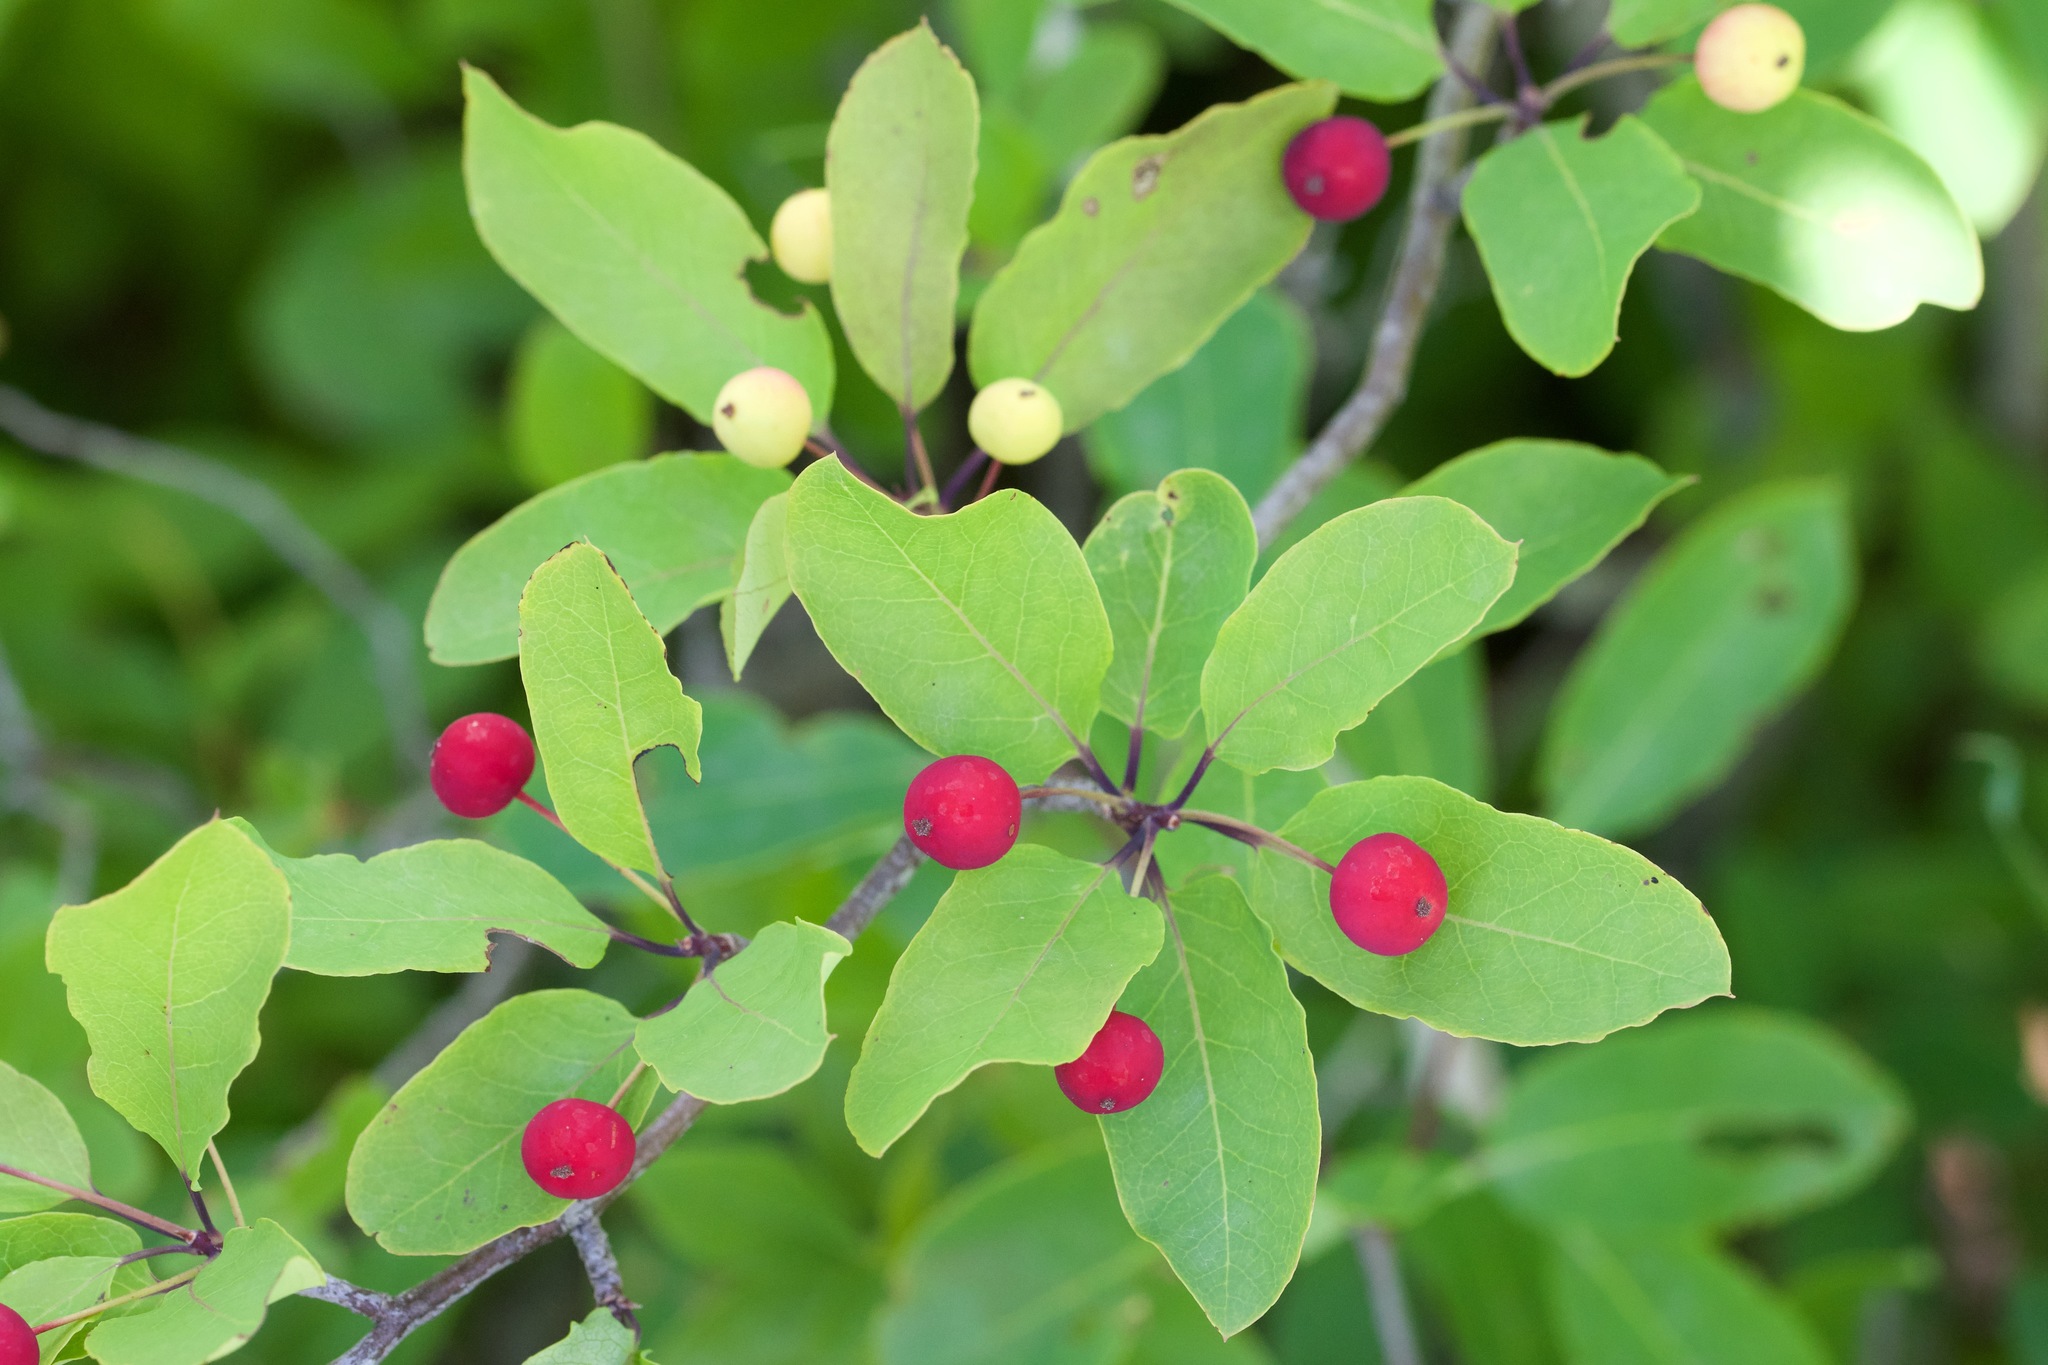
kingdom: Plantae
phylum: Tracheophyta
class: Magnoliopsida
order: Aquifoliales
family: Aquifoliaceae
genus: Ilex
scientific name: Ilex mucronata
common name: Catberry
